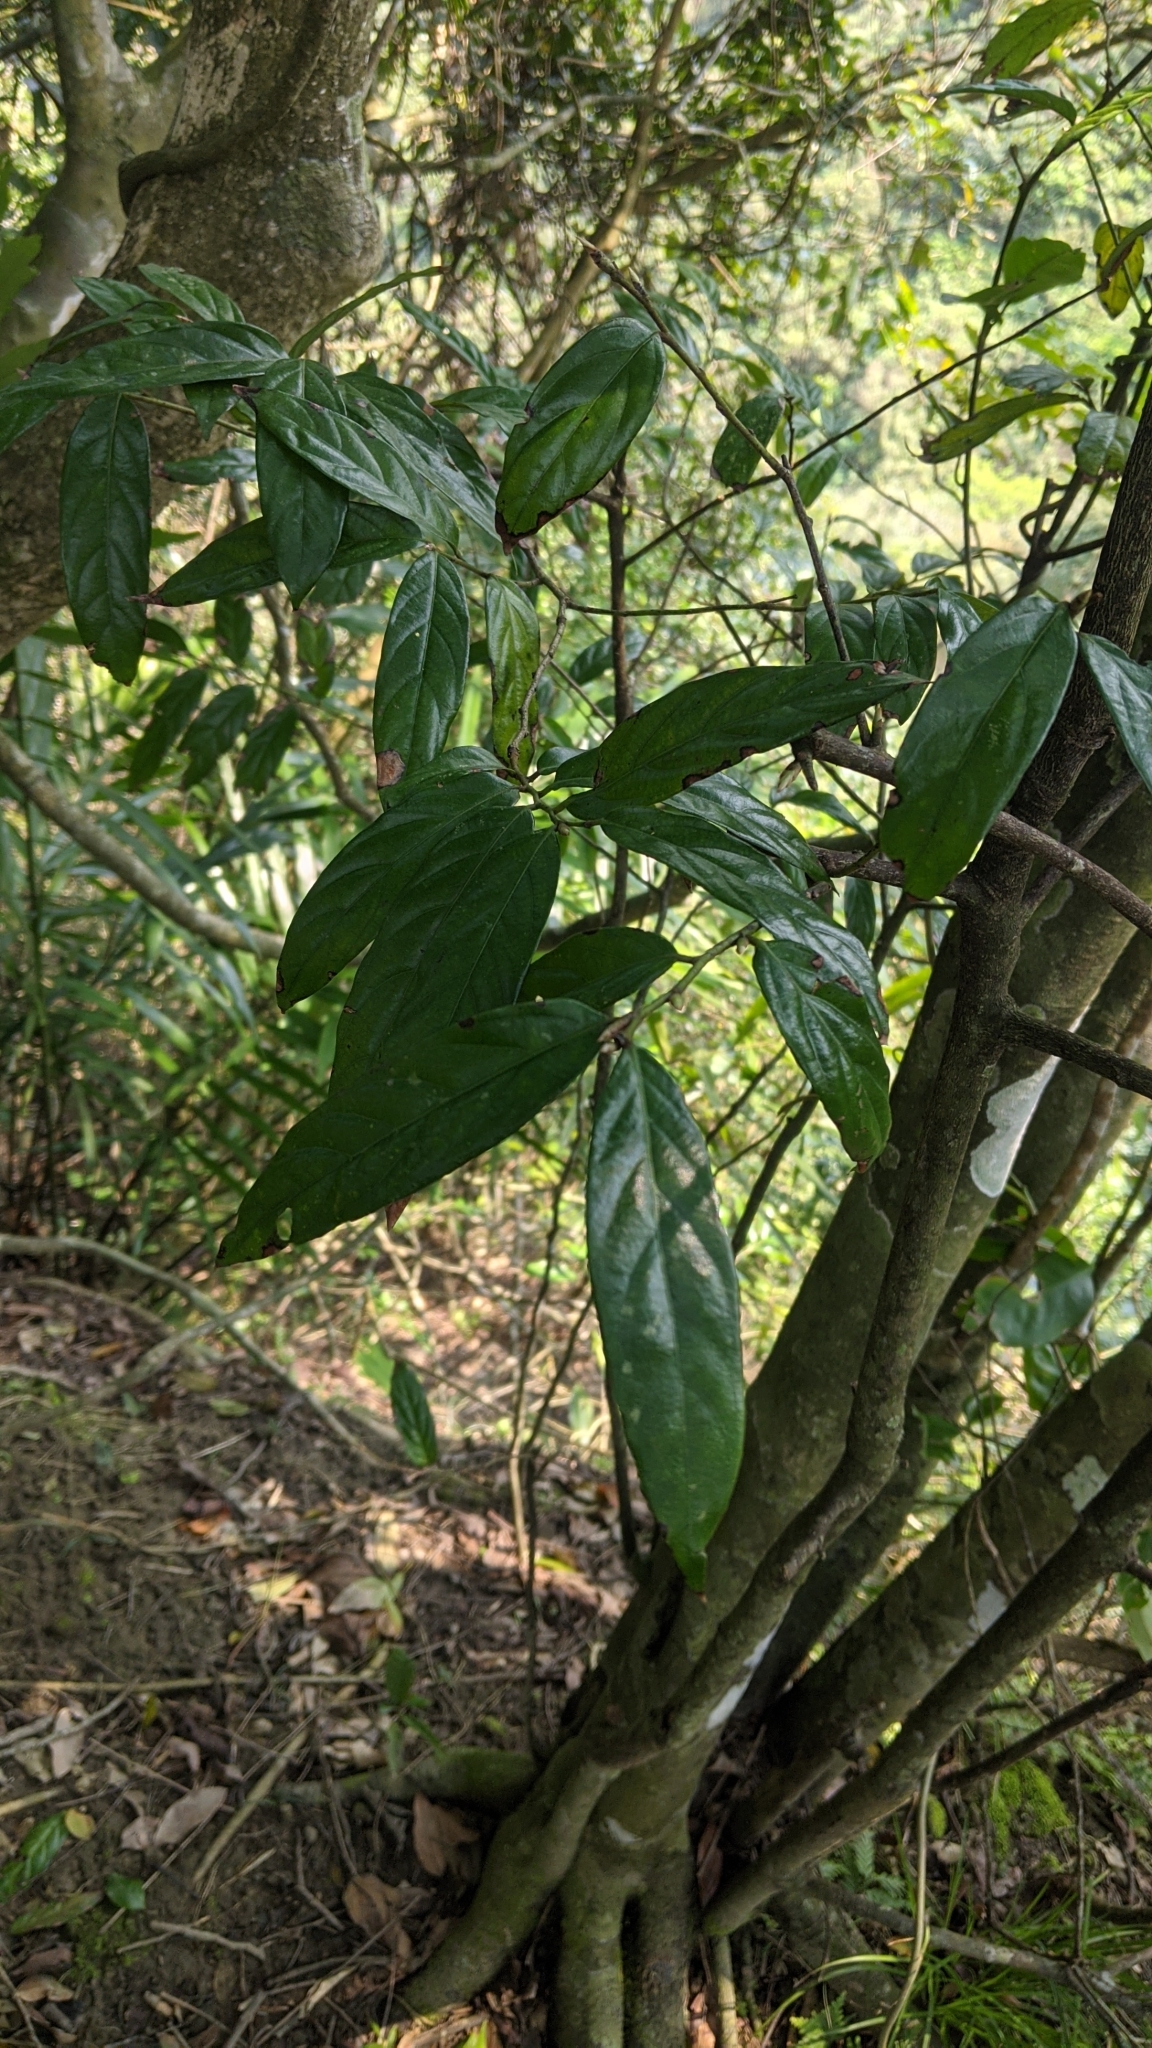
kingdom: Plantae
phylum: Tracheophyta
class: Magnoliopsida
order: Ericales
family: Ebenaceae
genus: Diospyros
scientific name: Diospyros eriantha
